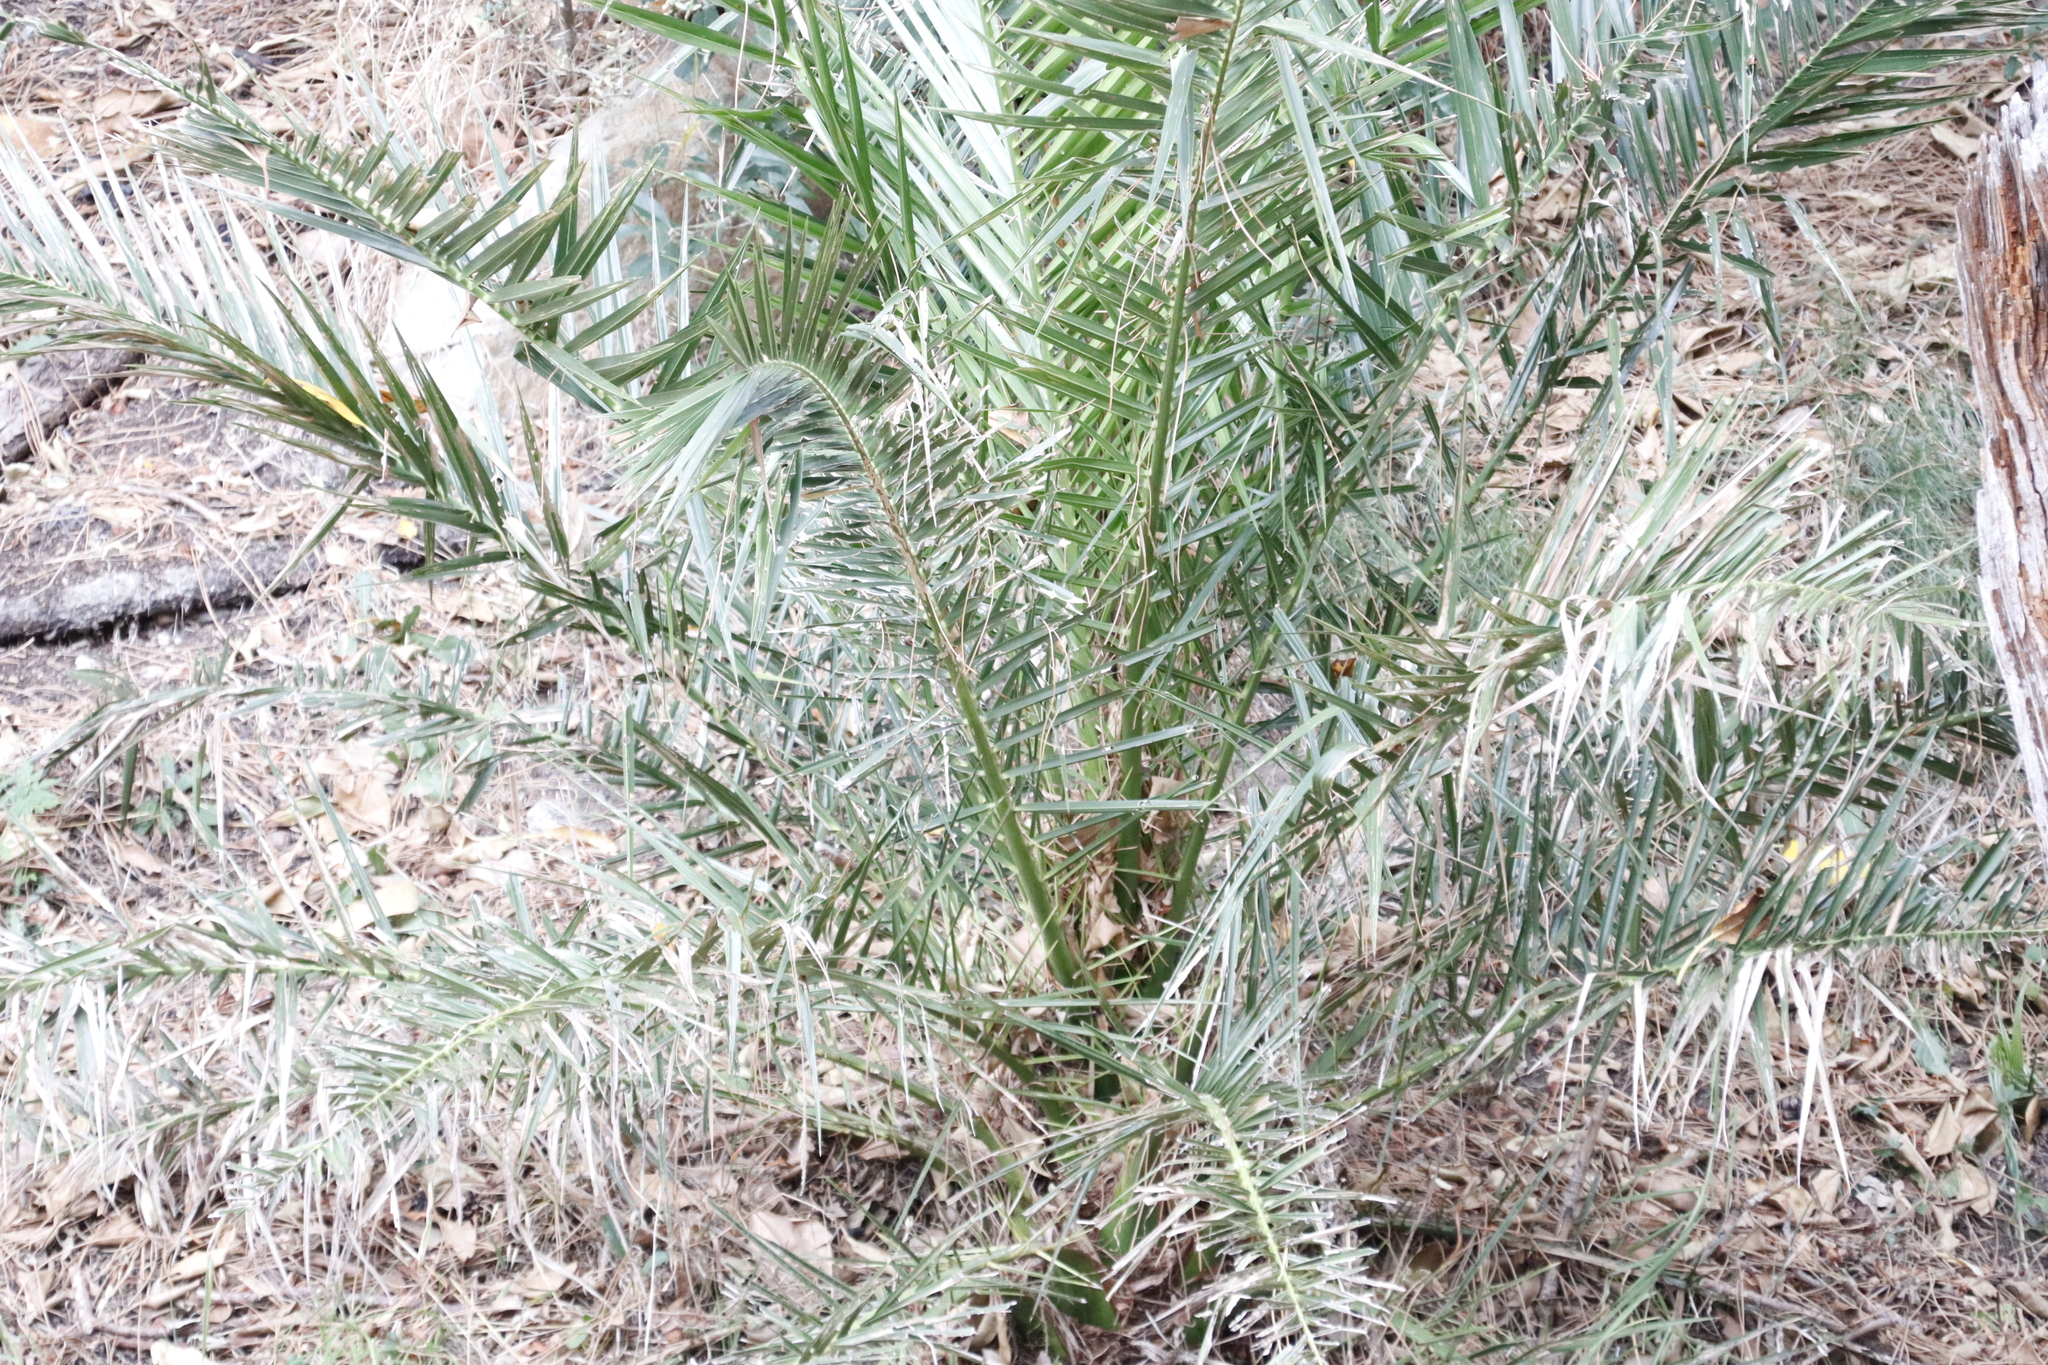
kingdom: Plantae
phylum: Tracheophyta
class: Liliopsida
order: Arecales
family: Arecaceae
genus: Phoenix
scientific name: Phoenix canariensis
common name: Canary island date palm
